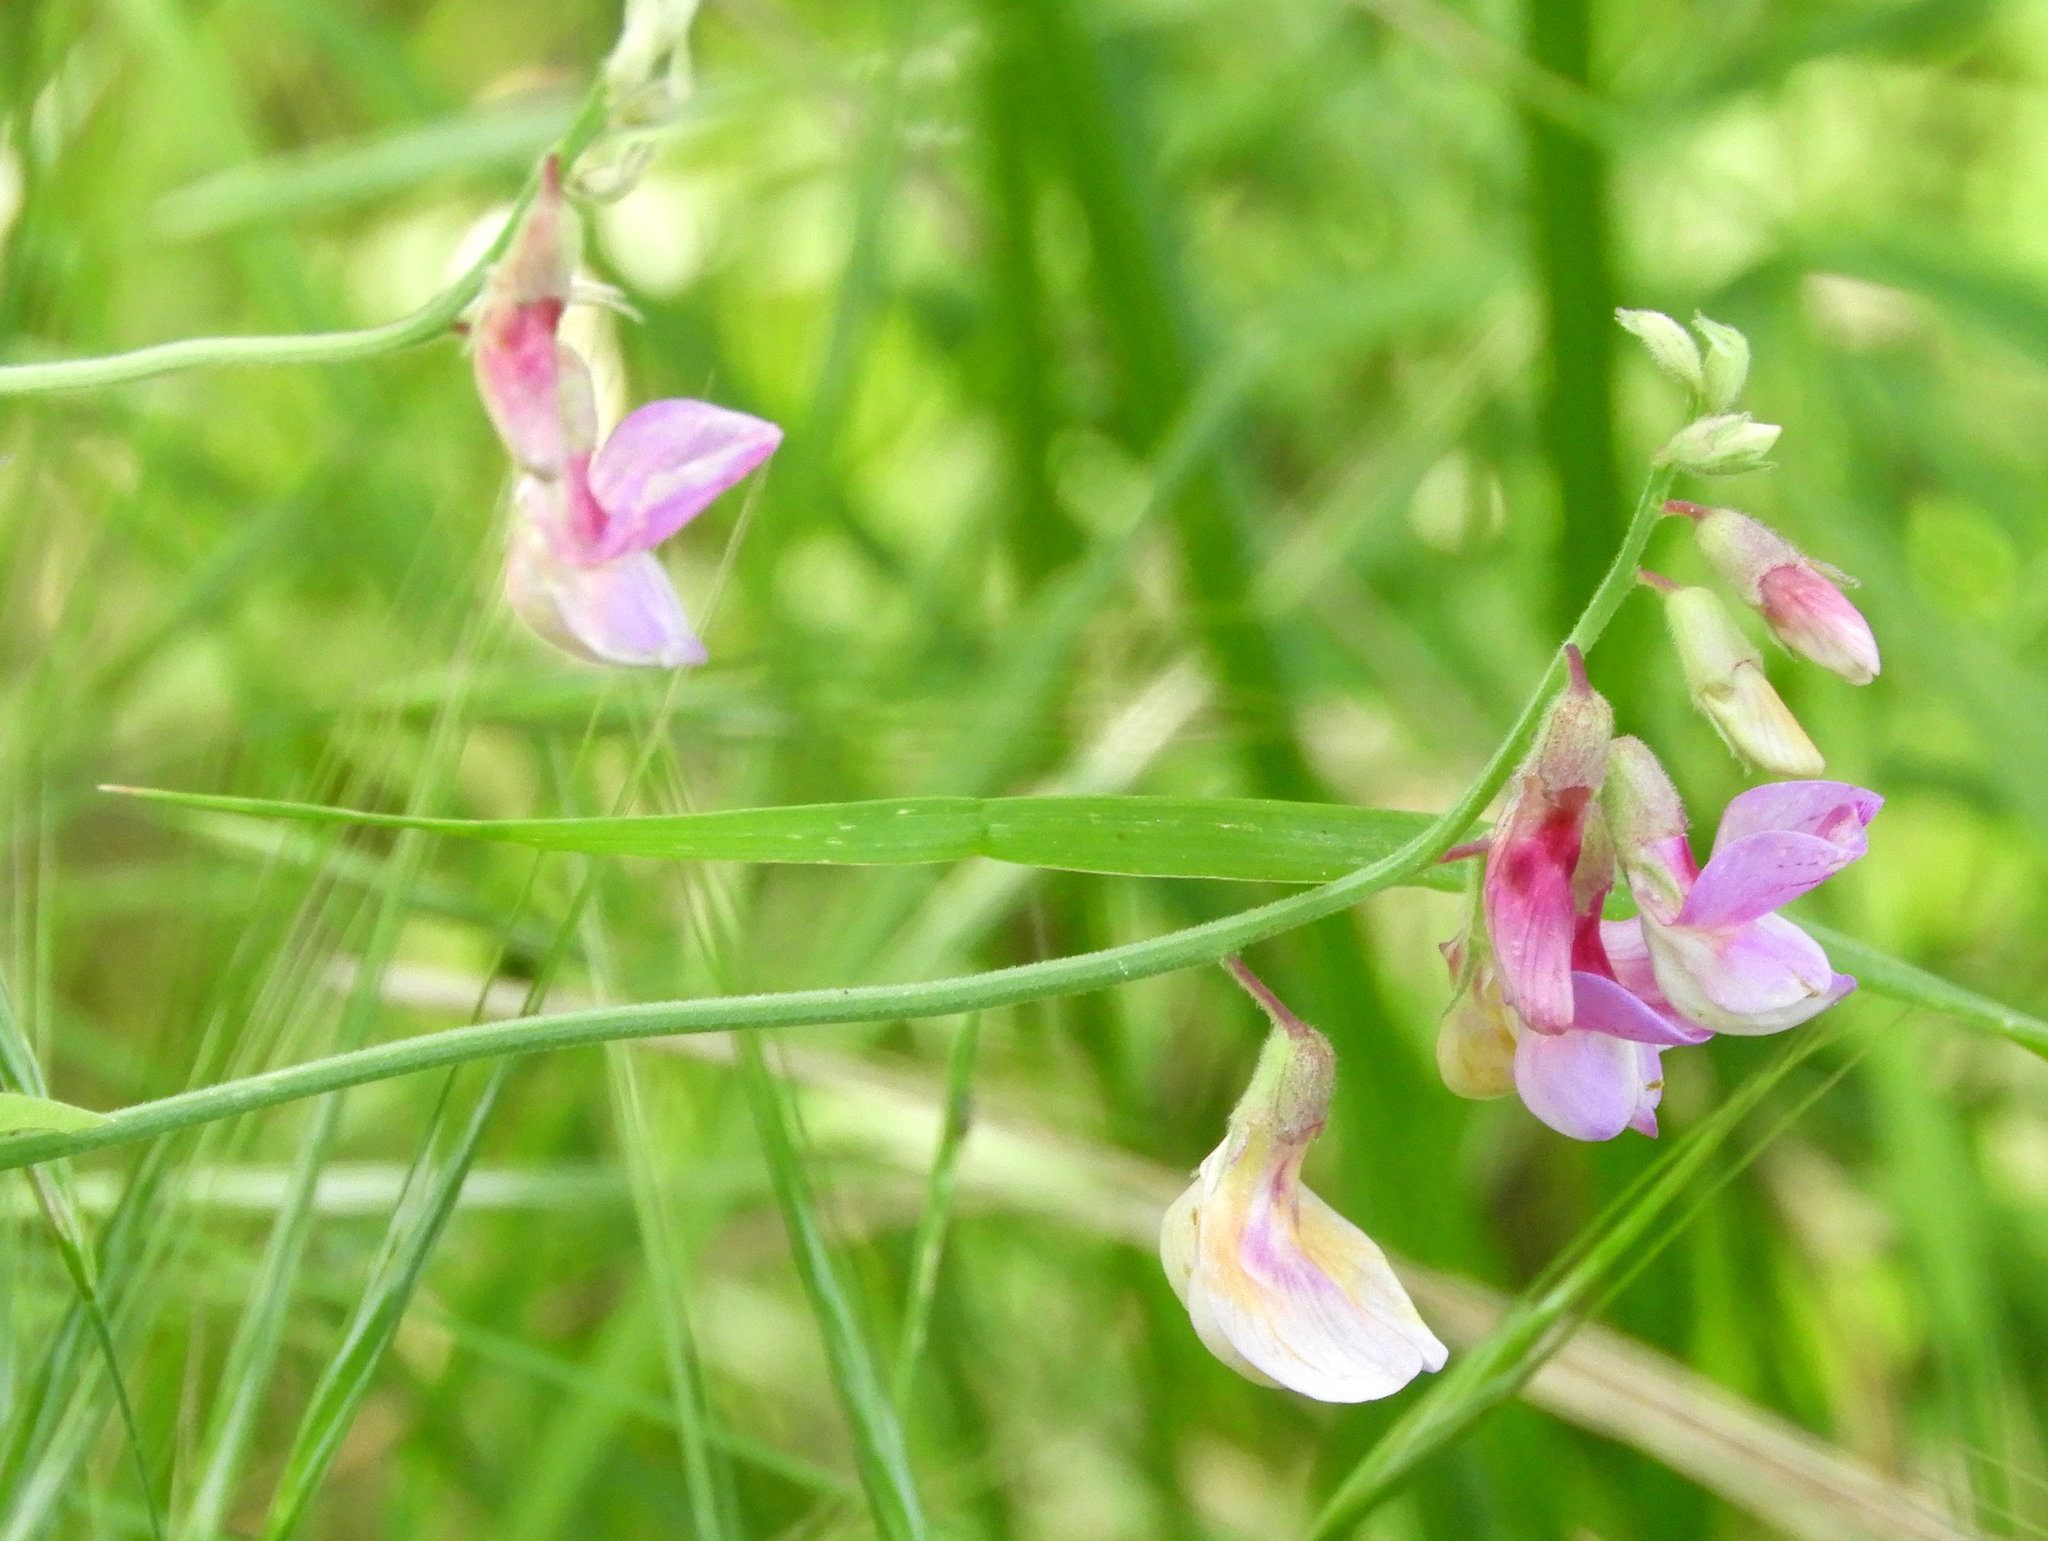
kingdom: Plantae
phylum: Tracheophyta
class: Magnoliopsida
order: Fabales
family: Fabaceae
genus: Lathyrus
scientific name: Lathyrus jepsonii
